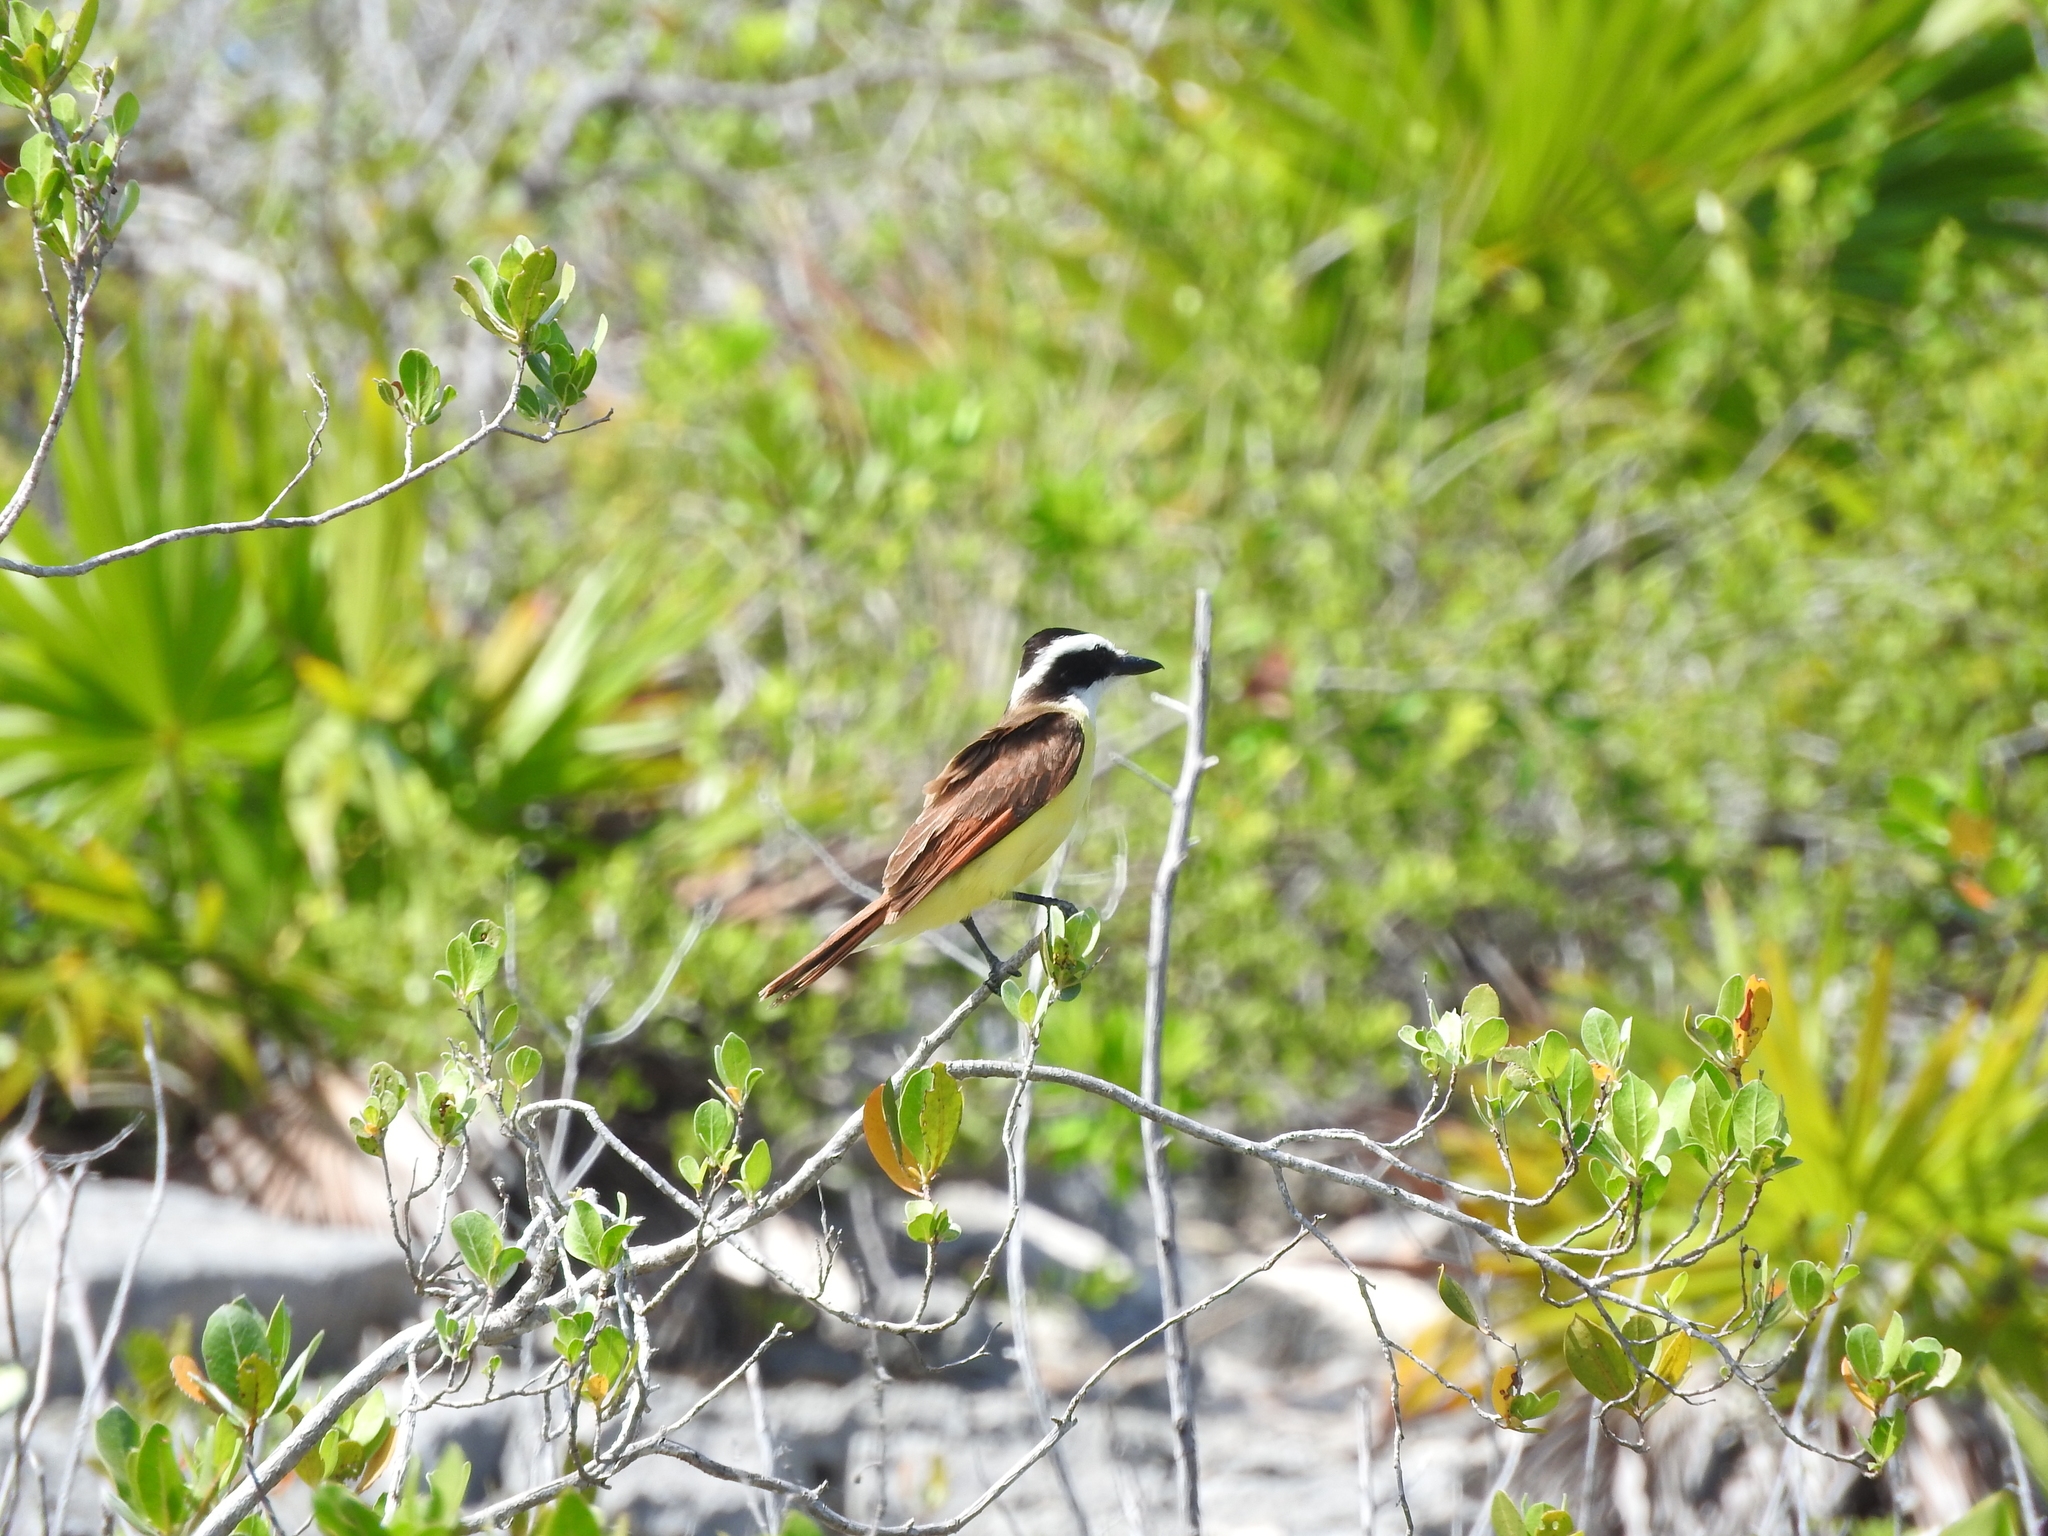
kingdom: Animalia
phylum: Chordata
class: Aves
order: Passeriformes
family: Tyrannidae
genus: Pitangus
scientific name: Pitangus sulphuratus
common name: Great kiskadee
